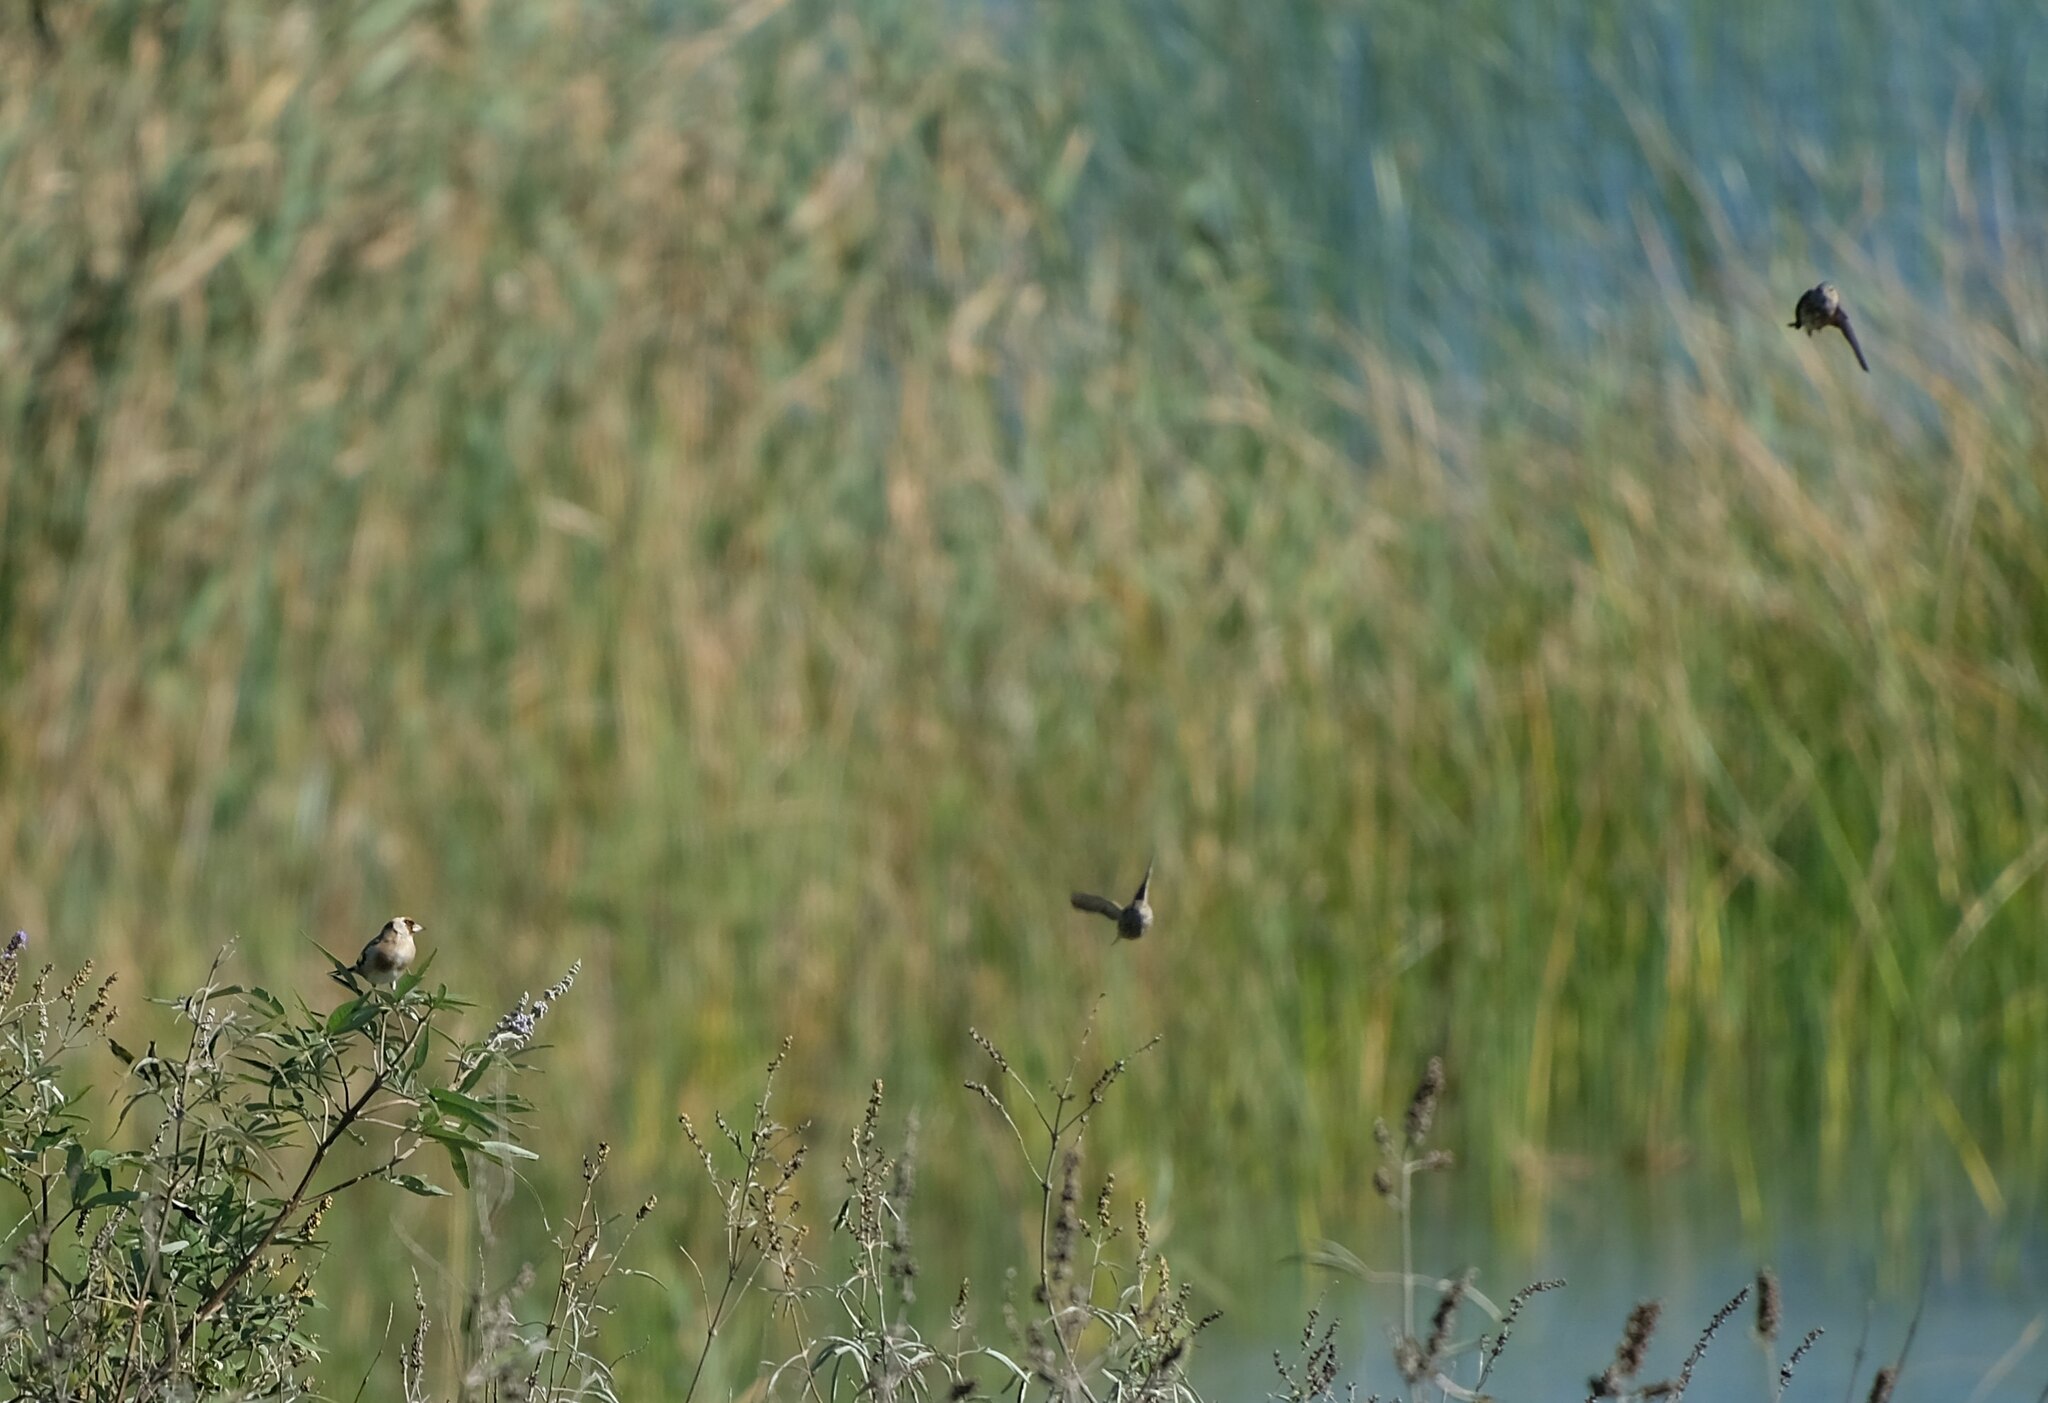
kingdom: Animalia
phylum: Chordata
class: Aves
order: Passeriformes
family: Fringillidae
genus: Carduelis
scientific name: Carduelis carduelis
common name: European goldfinch
